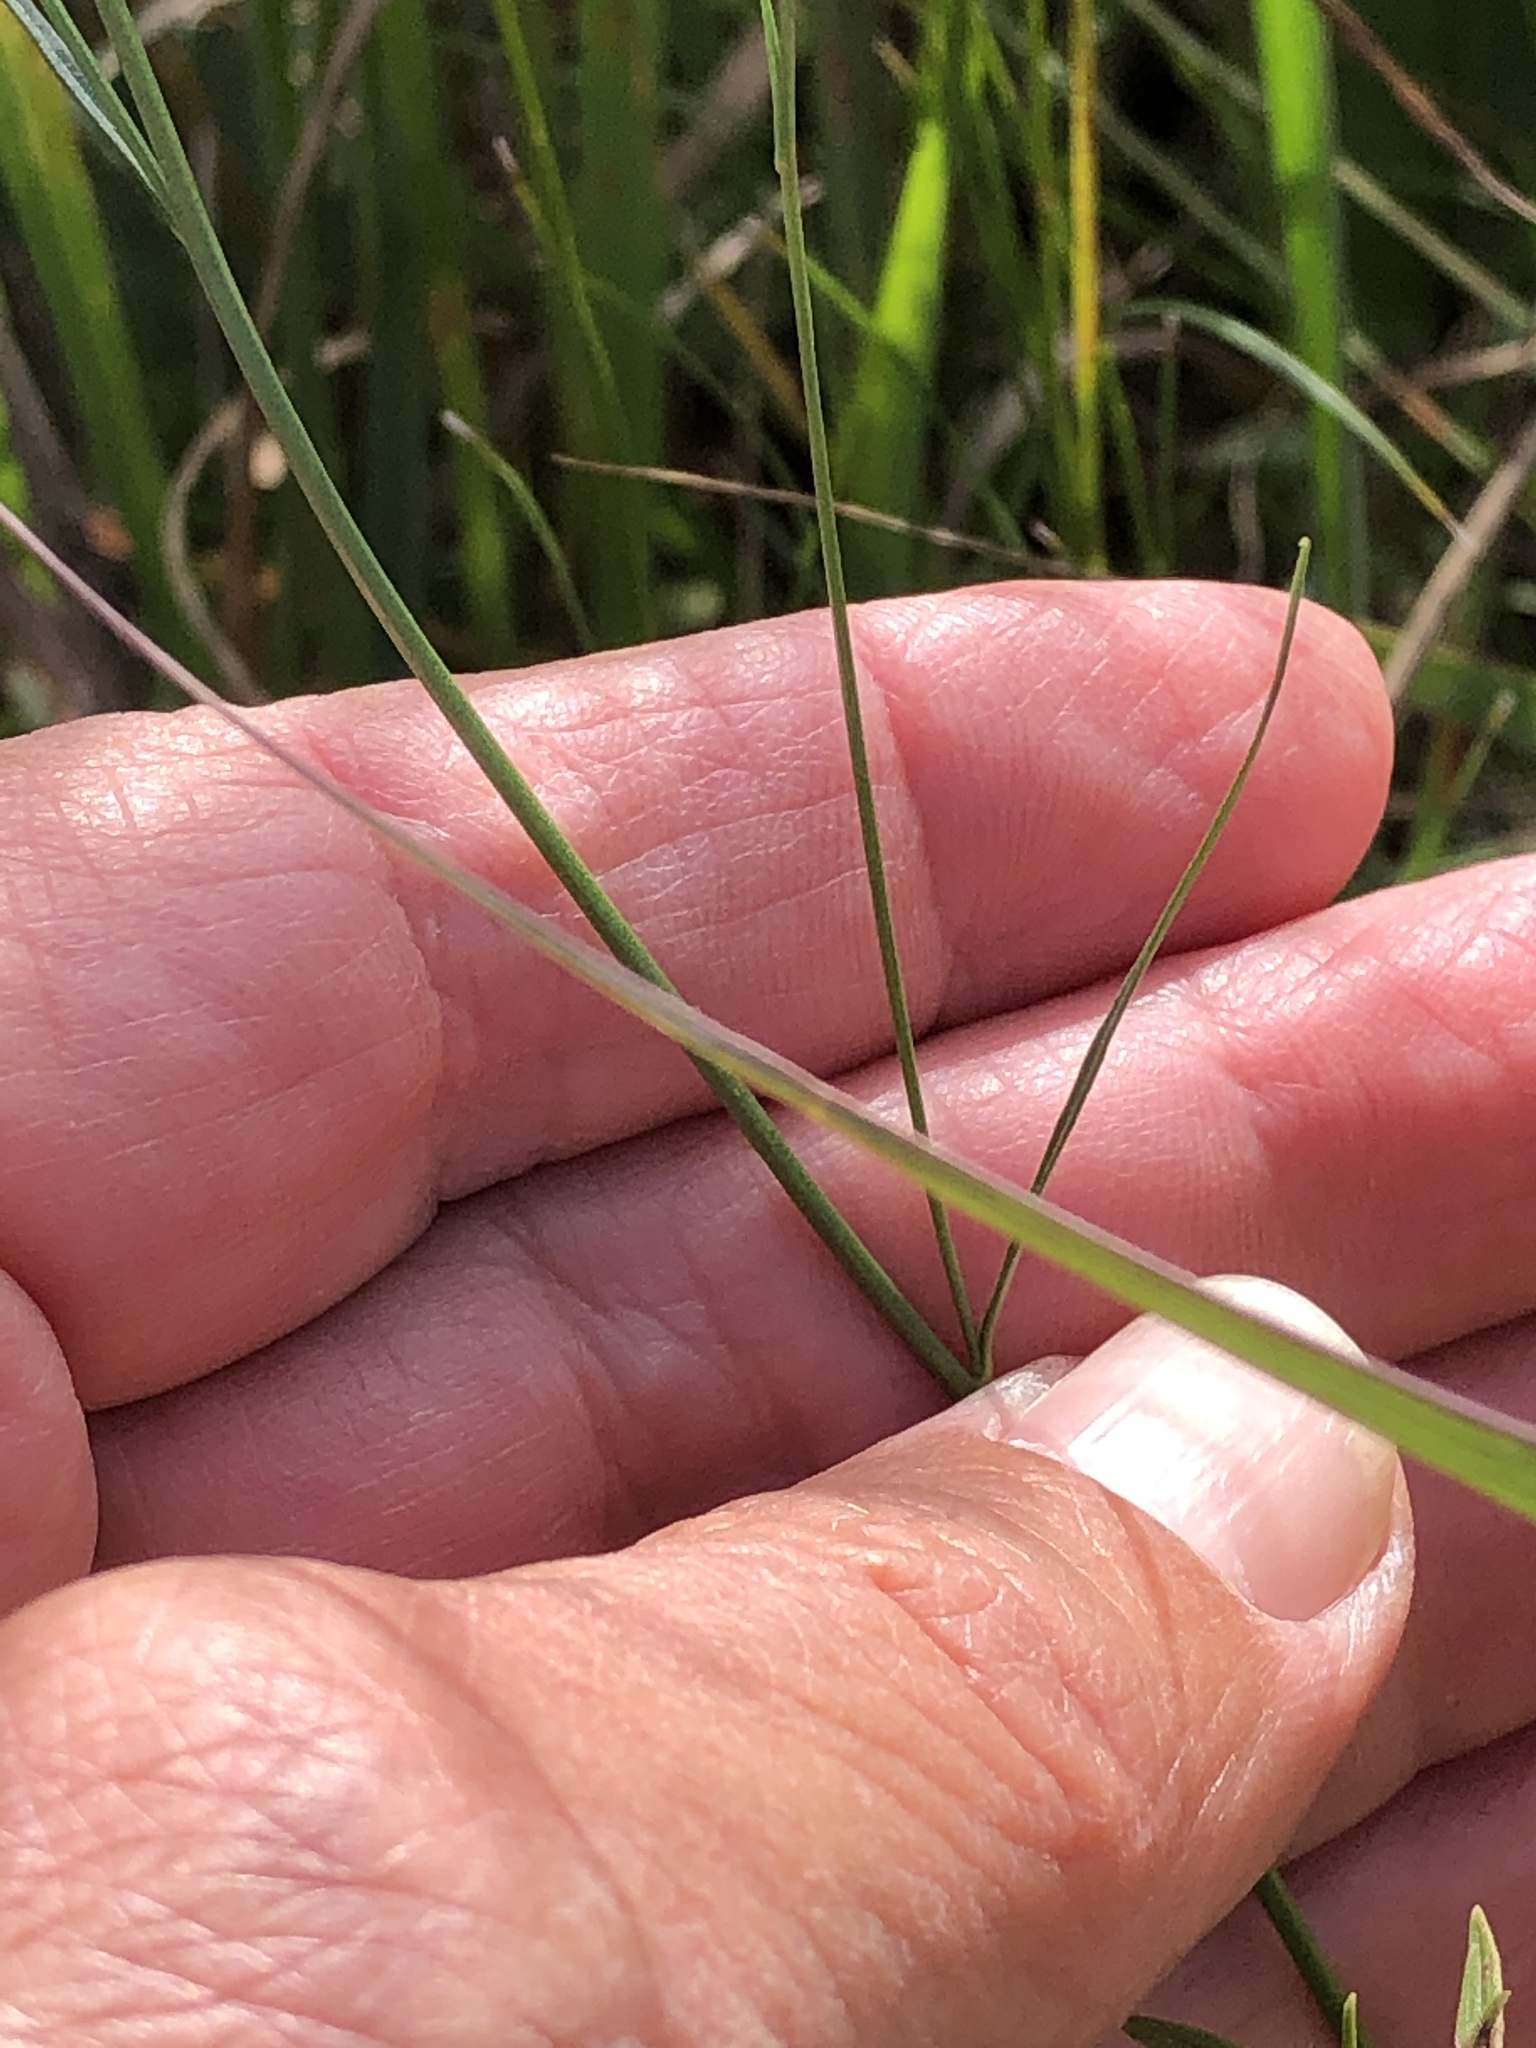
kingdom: Plantae
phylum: Tracheophyta
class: Magnoliopsida
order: Asterales
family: Campanulaceae
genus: Campanula
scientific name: Campanula intercedens
